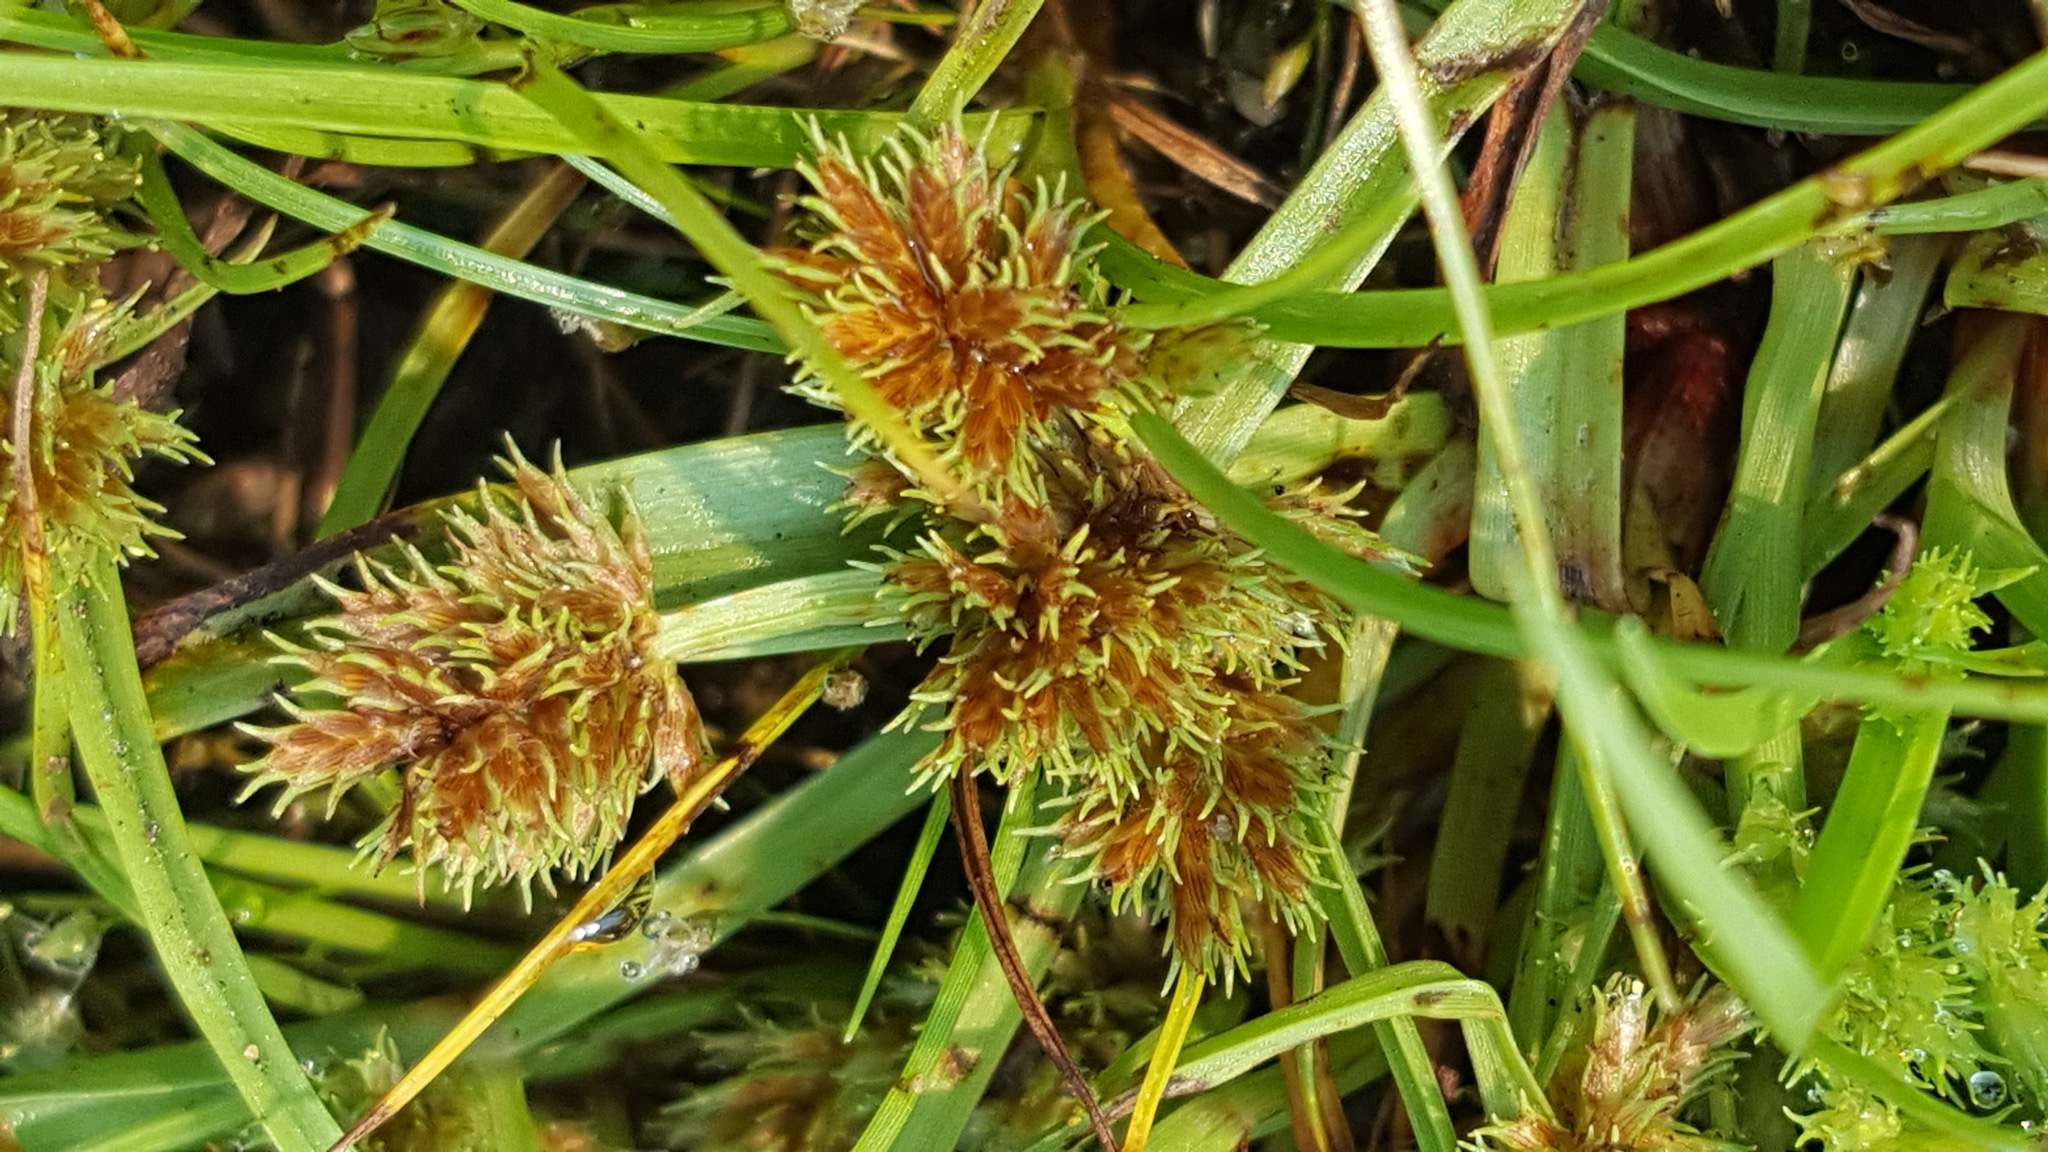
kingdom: Plantae
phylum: Tracheophyta
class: Liliopsida
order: Poales
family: Cyperaceae
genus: Cyperus
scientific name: Cyperus squarrosus
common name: Awned cyperus
